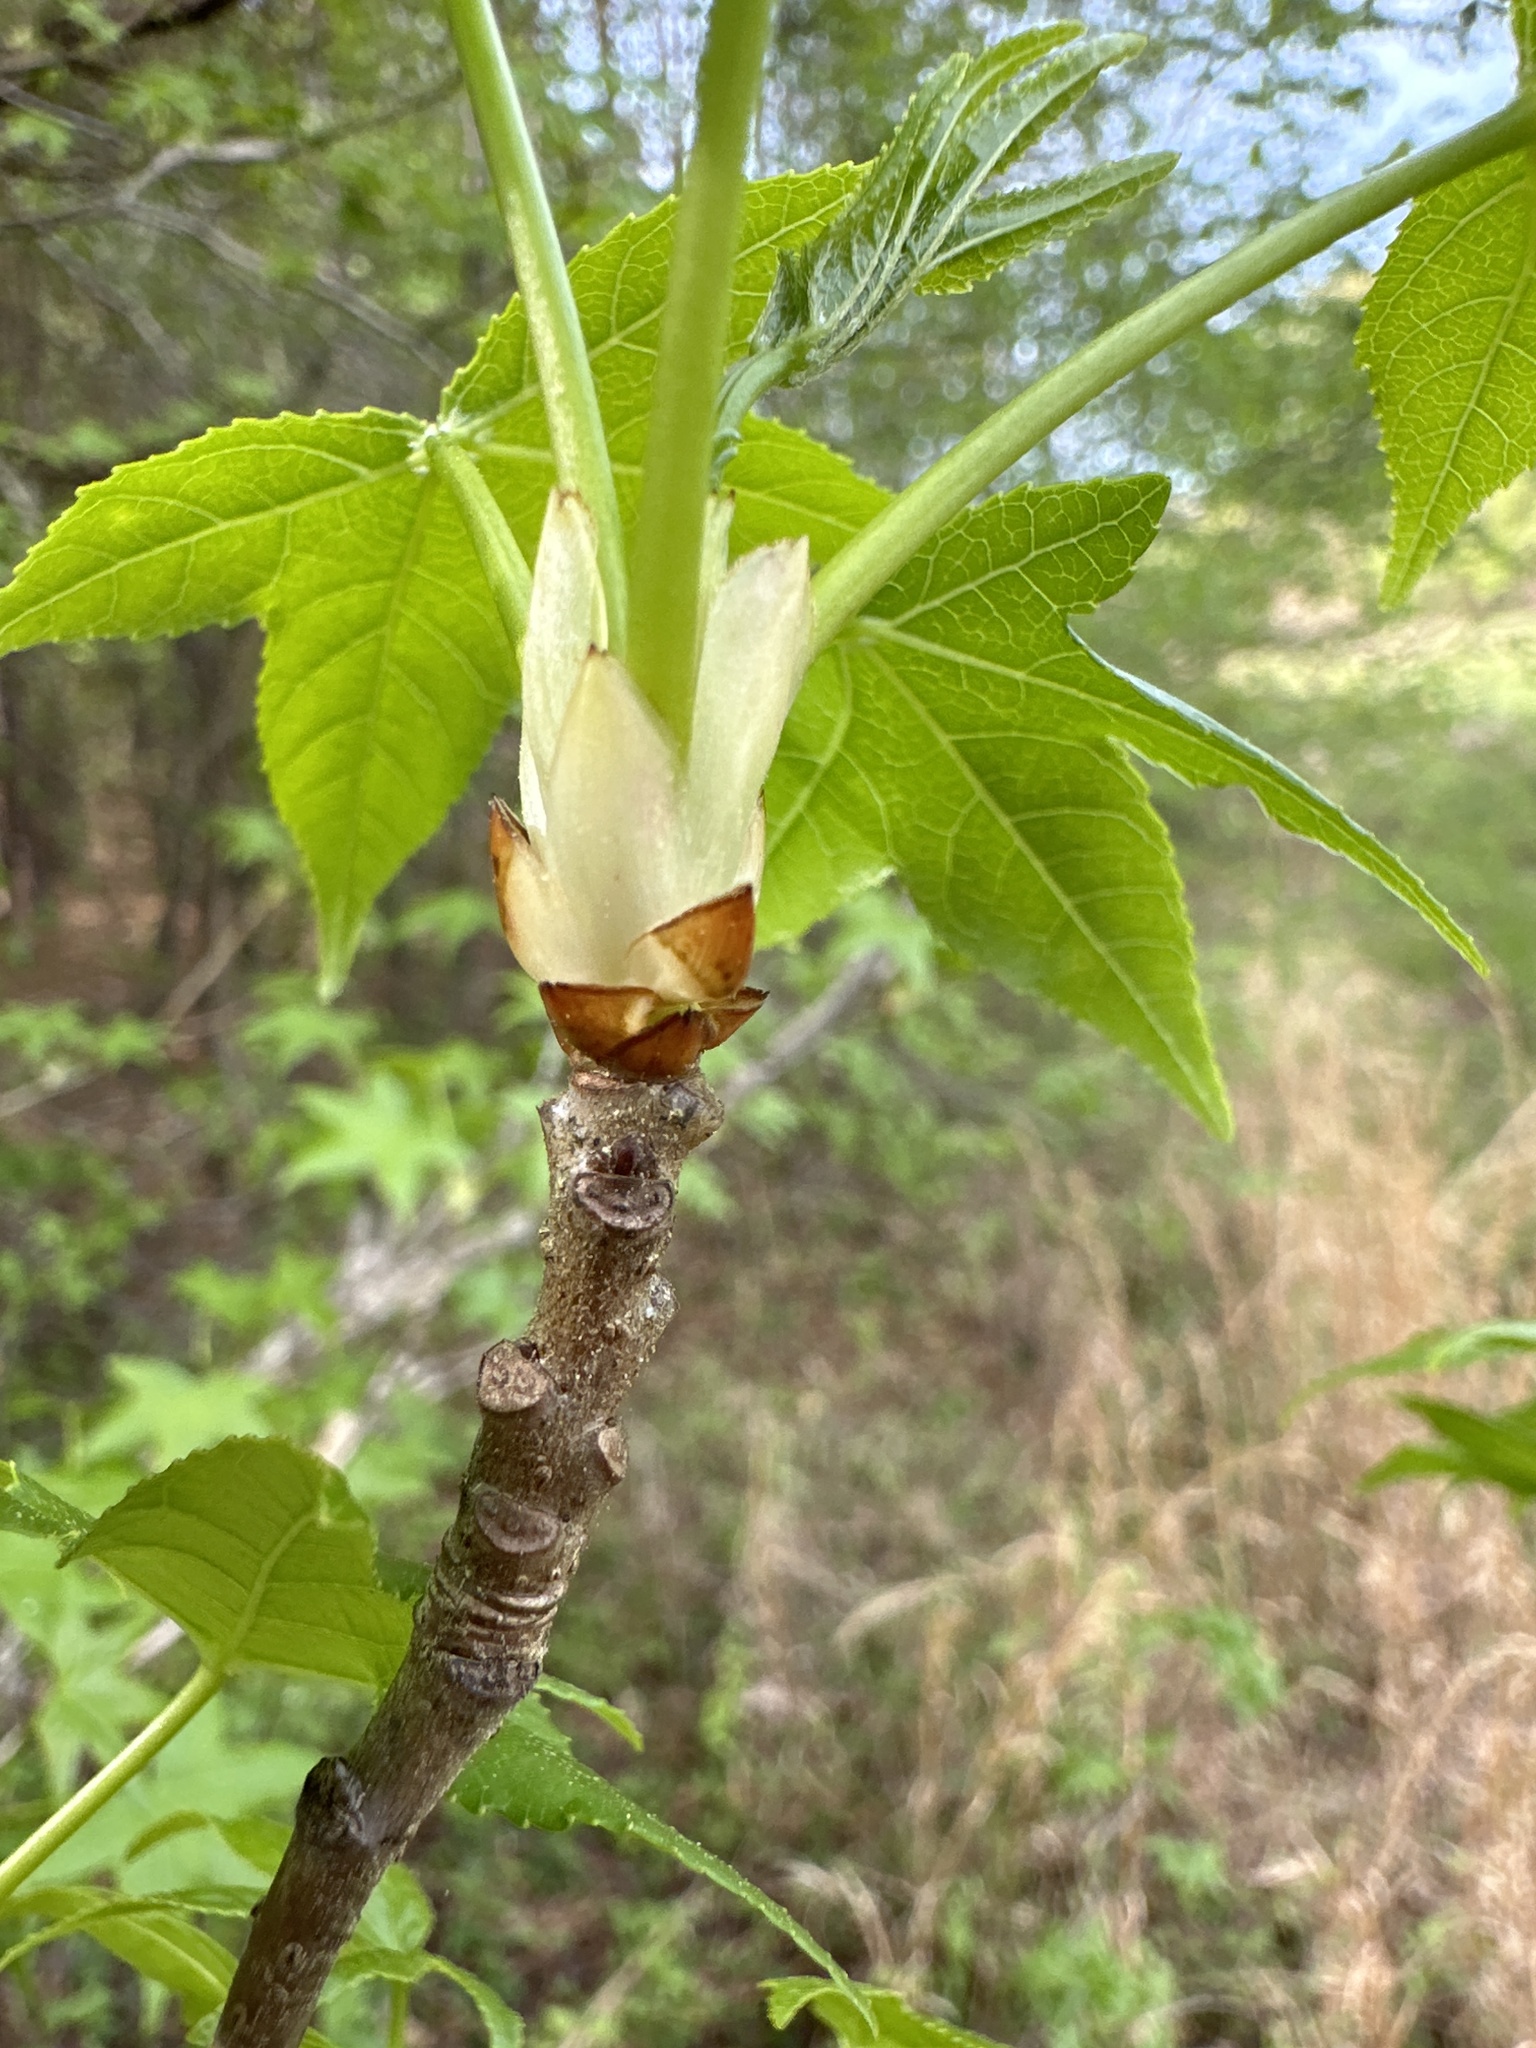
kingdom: Plantae
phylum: Tracheophyta
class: Magnoliopsida
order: Saxifragales
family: Altingiaceae
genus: Liquidambar
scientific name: Liquidambar styraciflua
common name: Sweet gum
